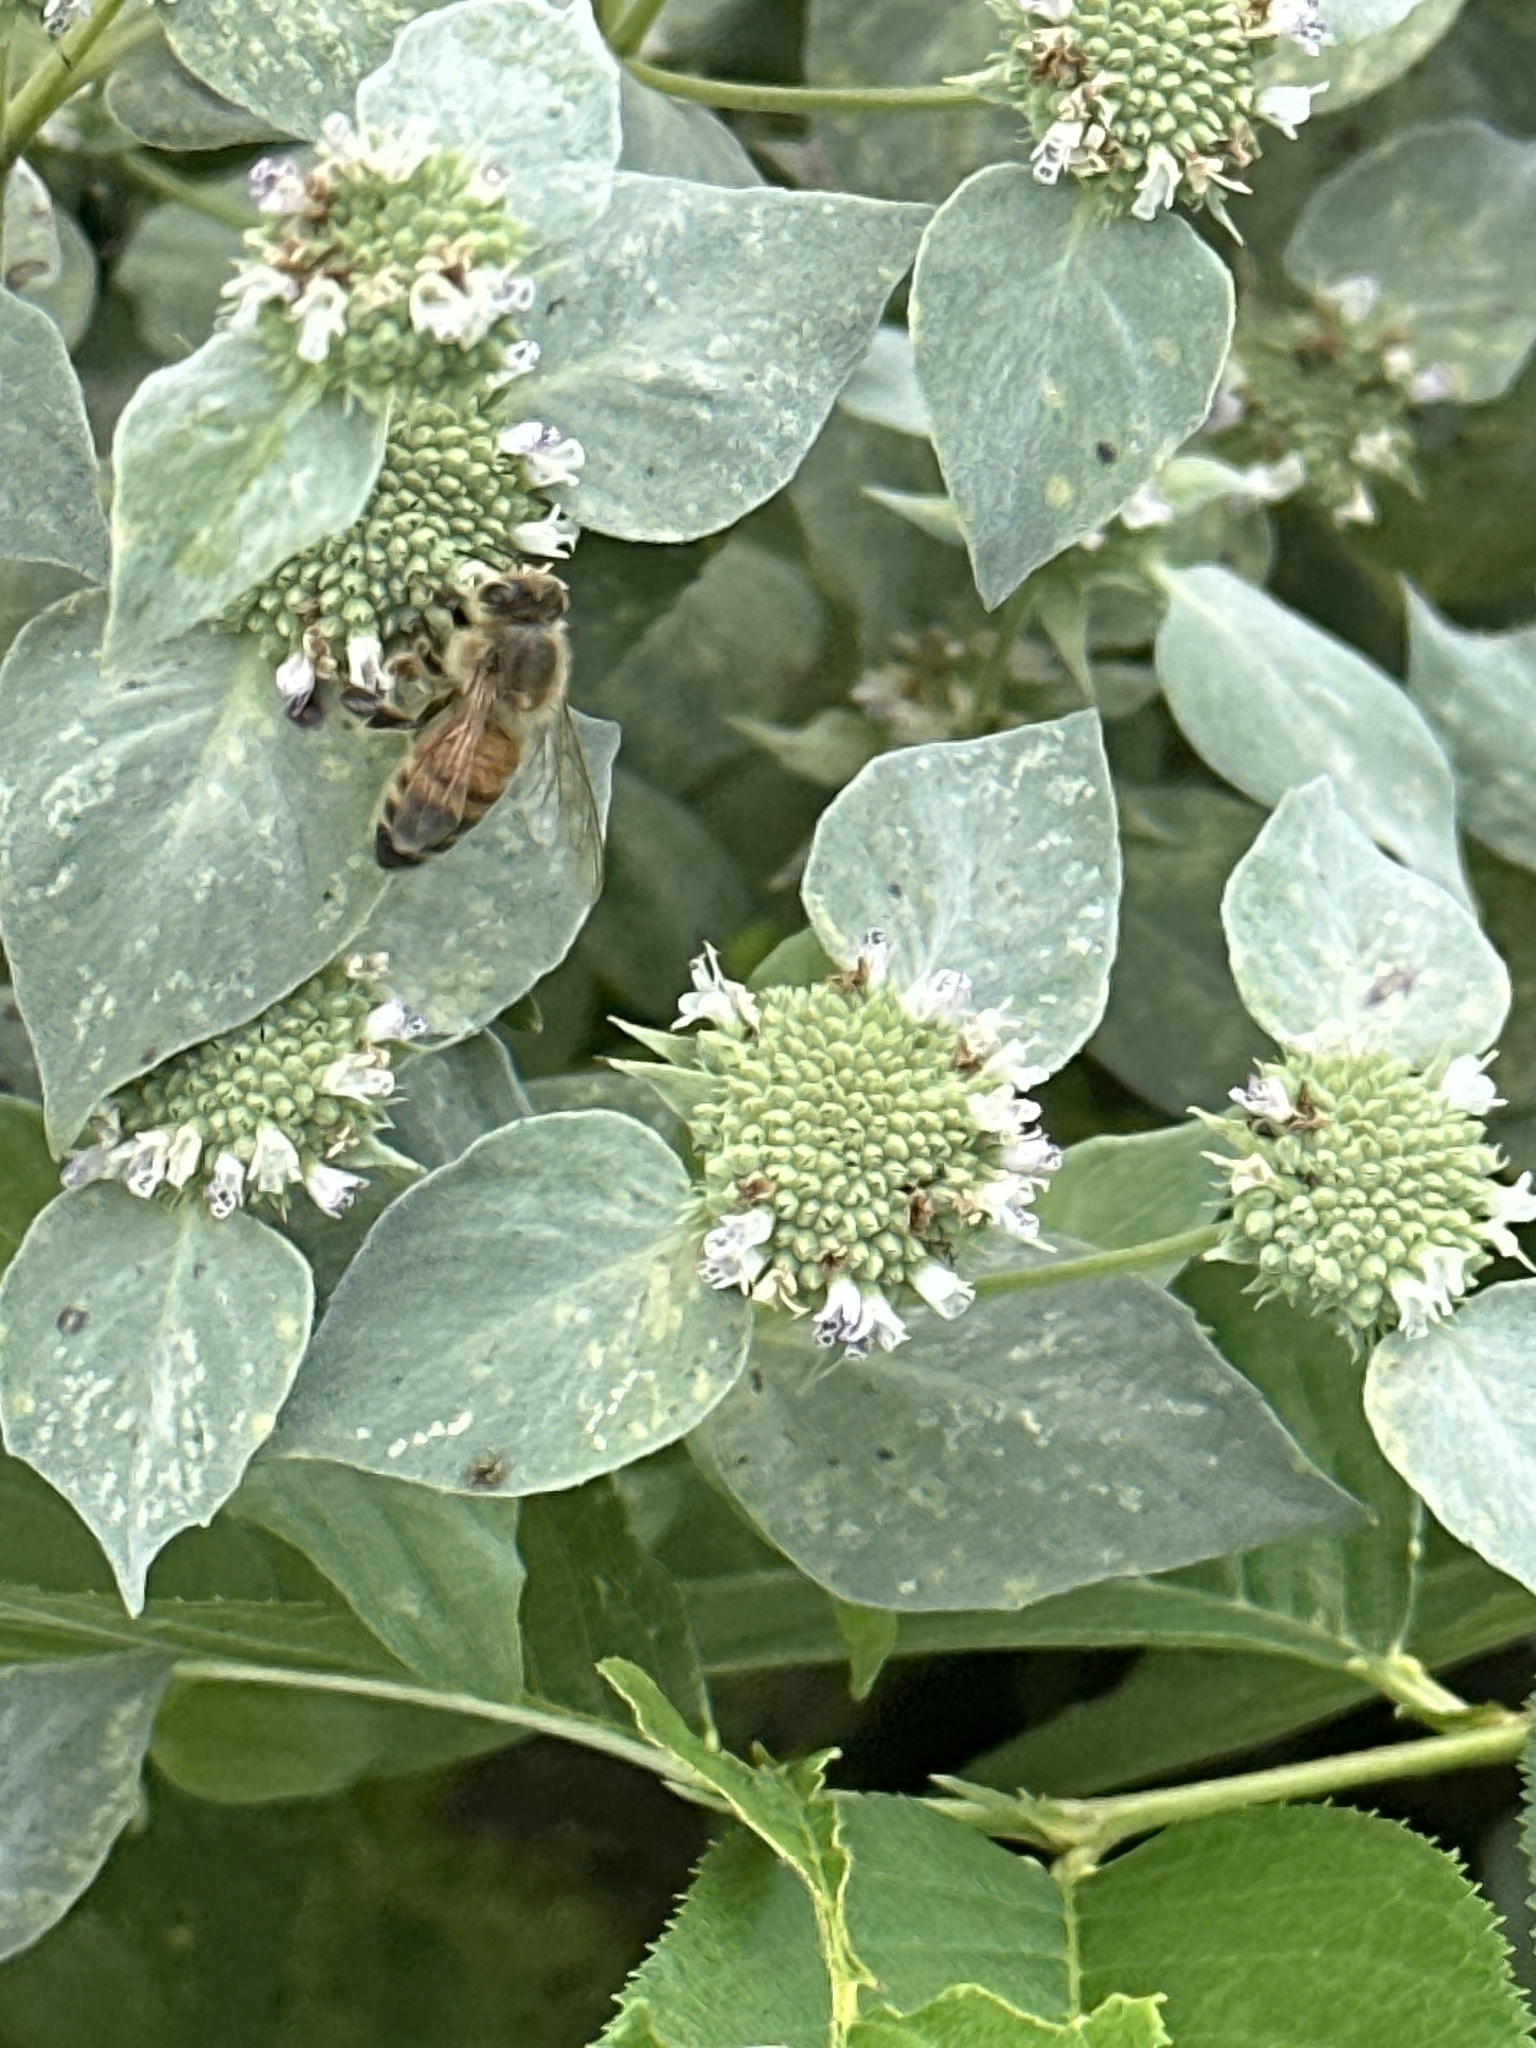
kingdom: Animalia
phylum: Arthropoda
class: Insecta
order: Hymenoptera
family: Apidae
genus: Apis
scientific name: Apis mellifera
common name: Honey bee
